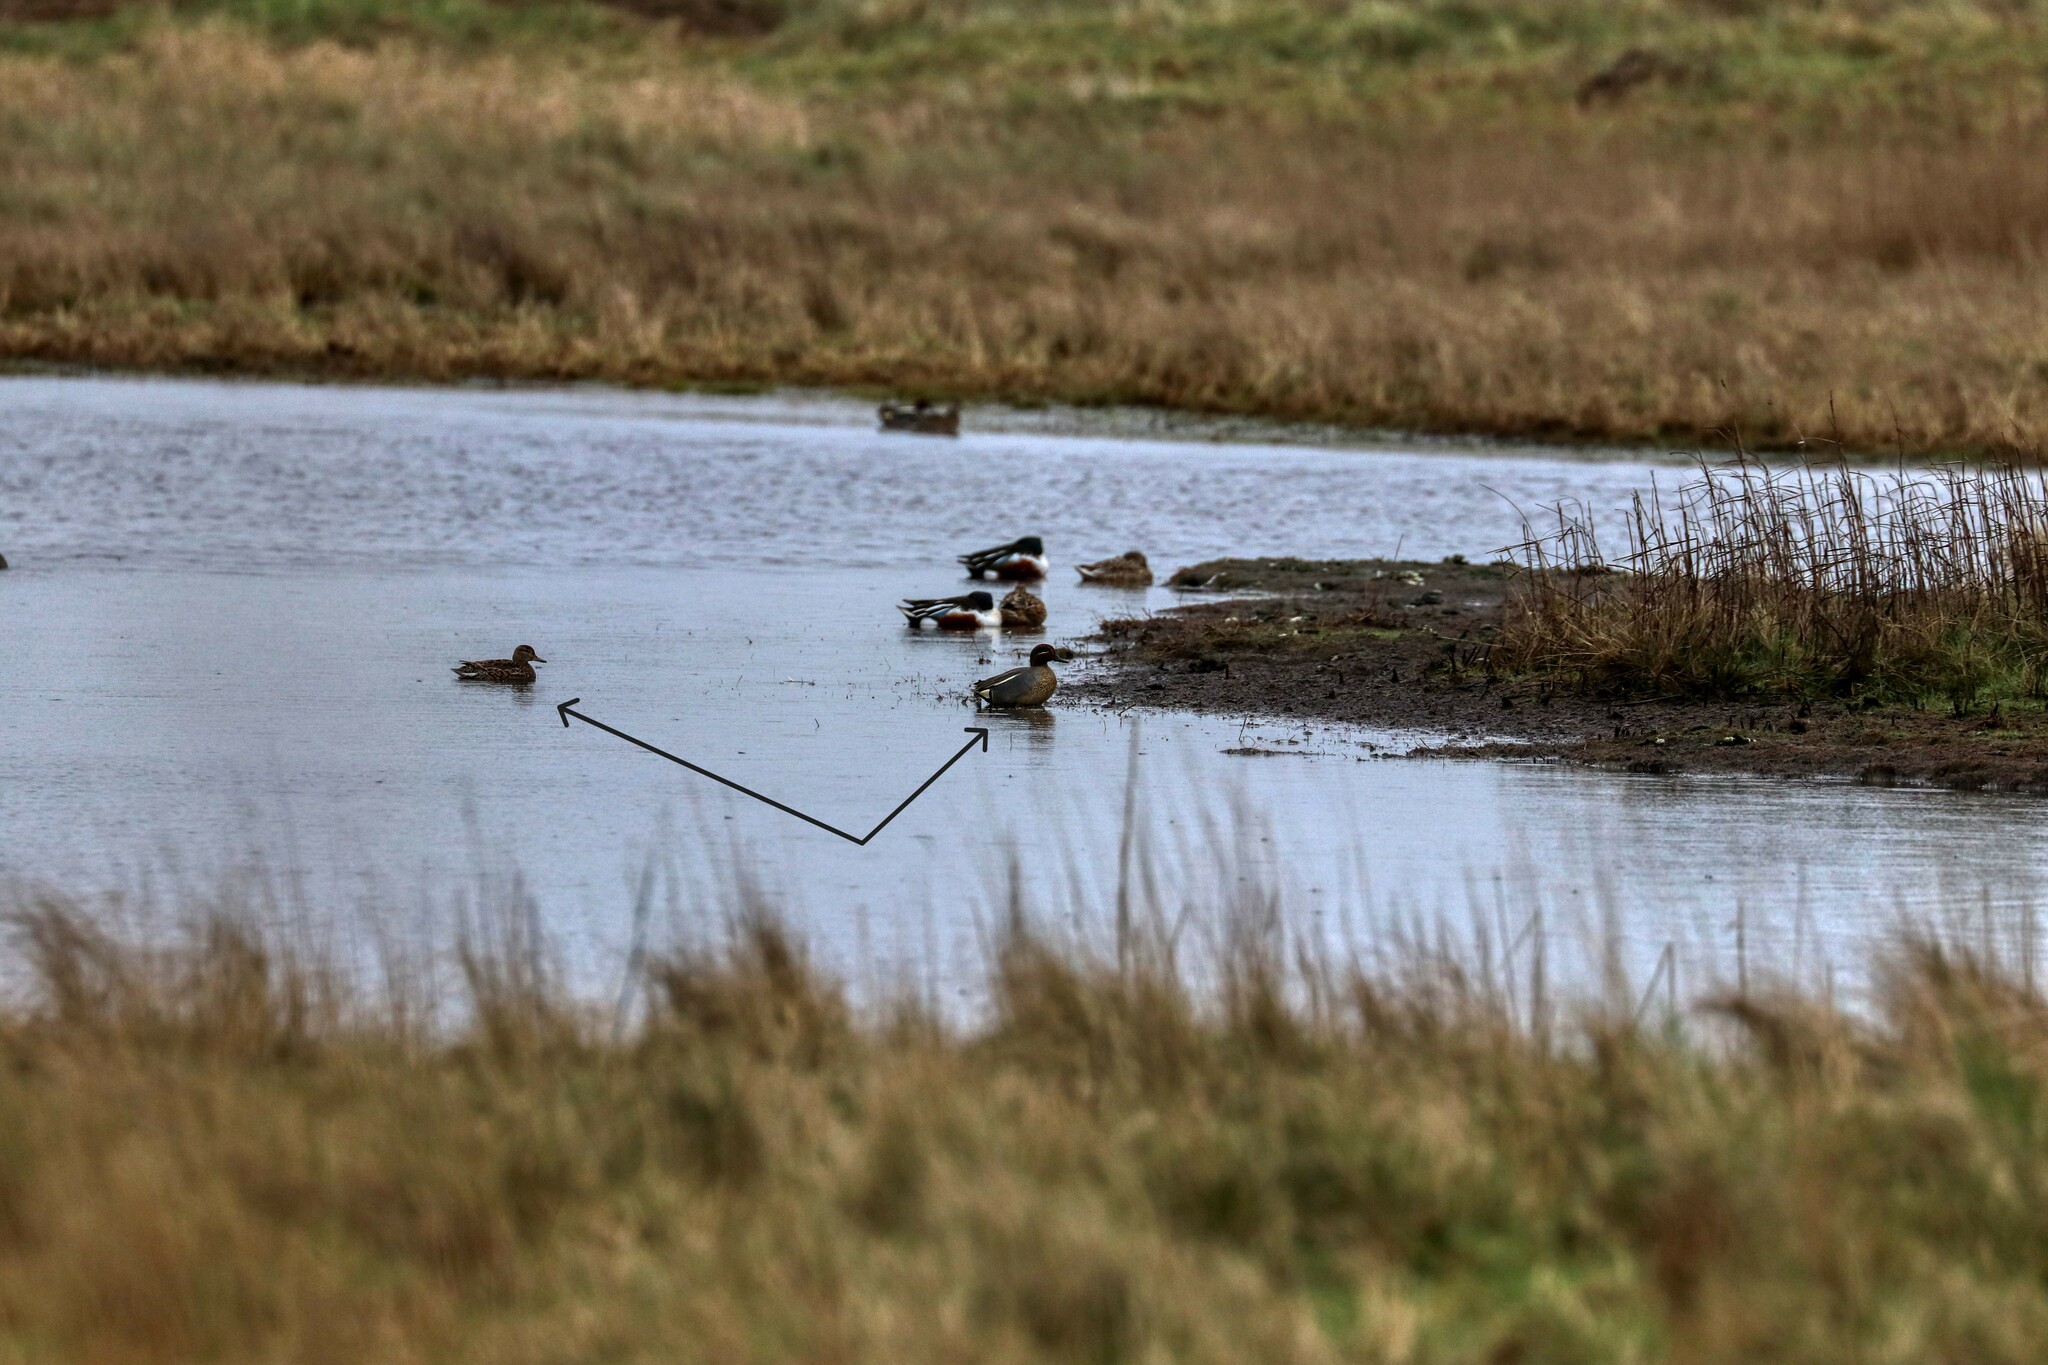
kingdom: Animalia
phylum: Chordata
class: Aves
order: Anseriformes
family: Anatidae
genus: Anas
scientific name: Anas crecca
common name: Eurasian teal
